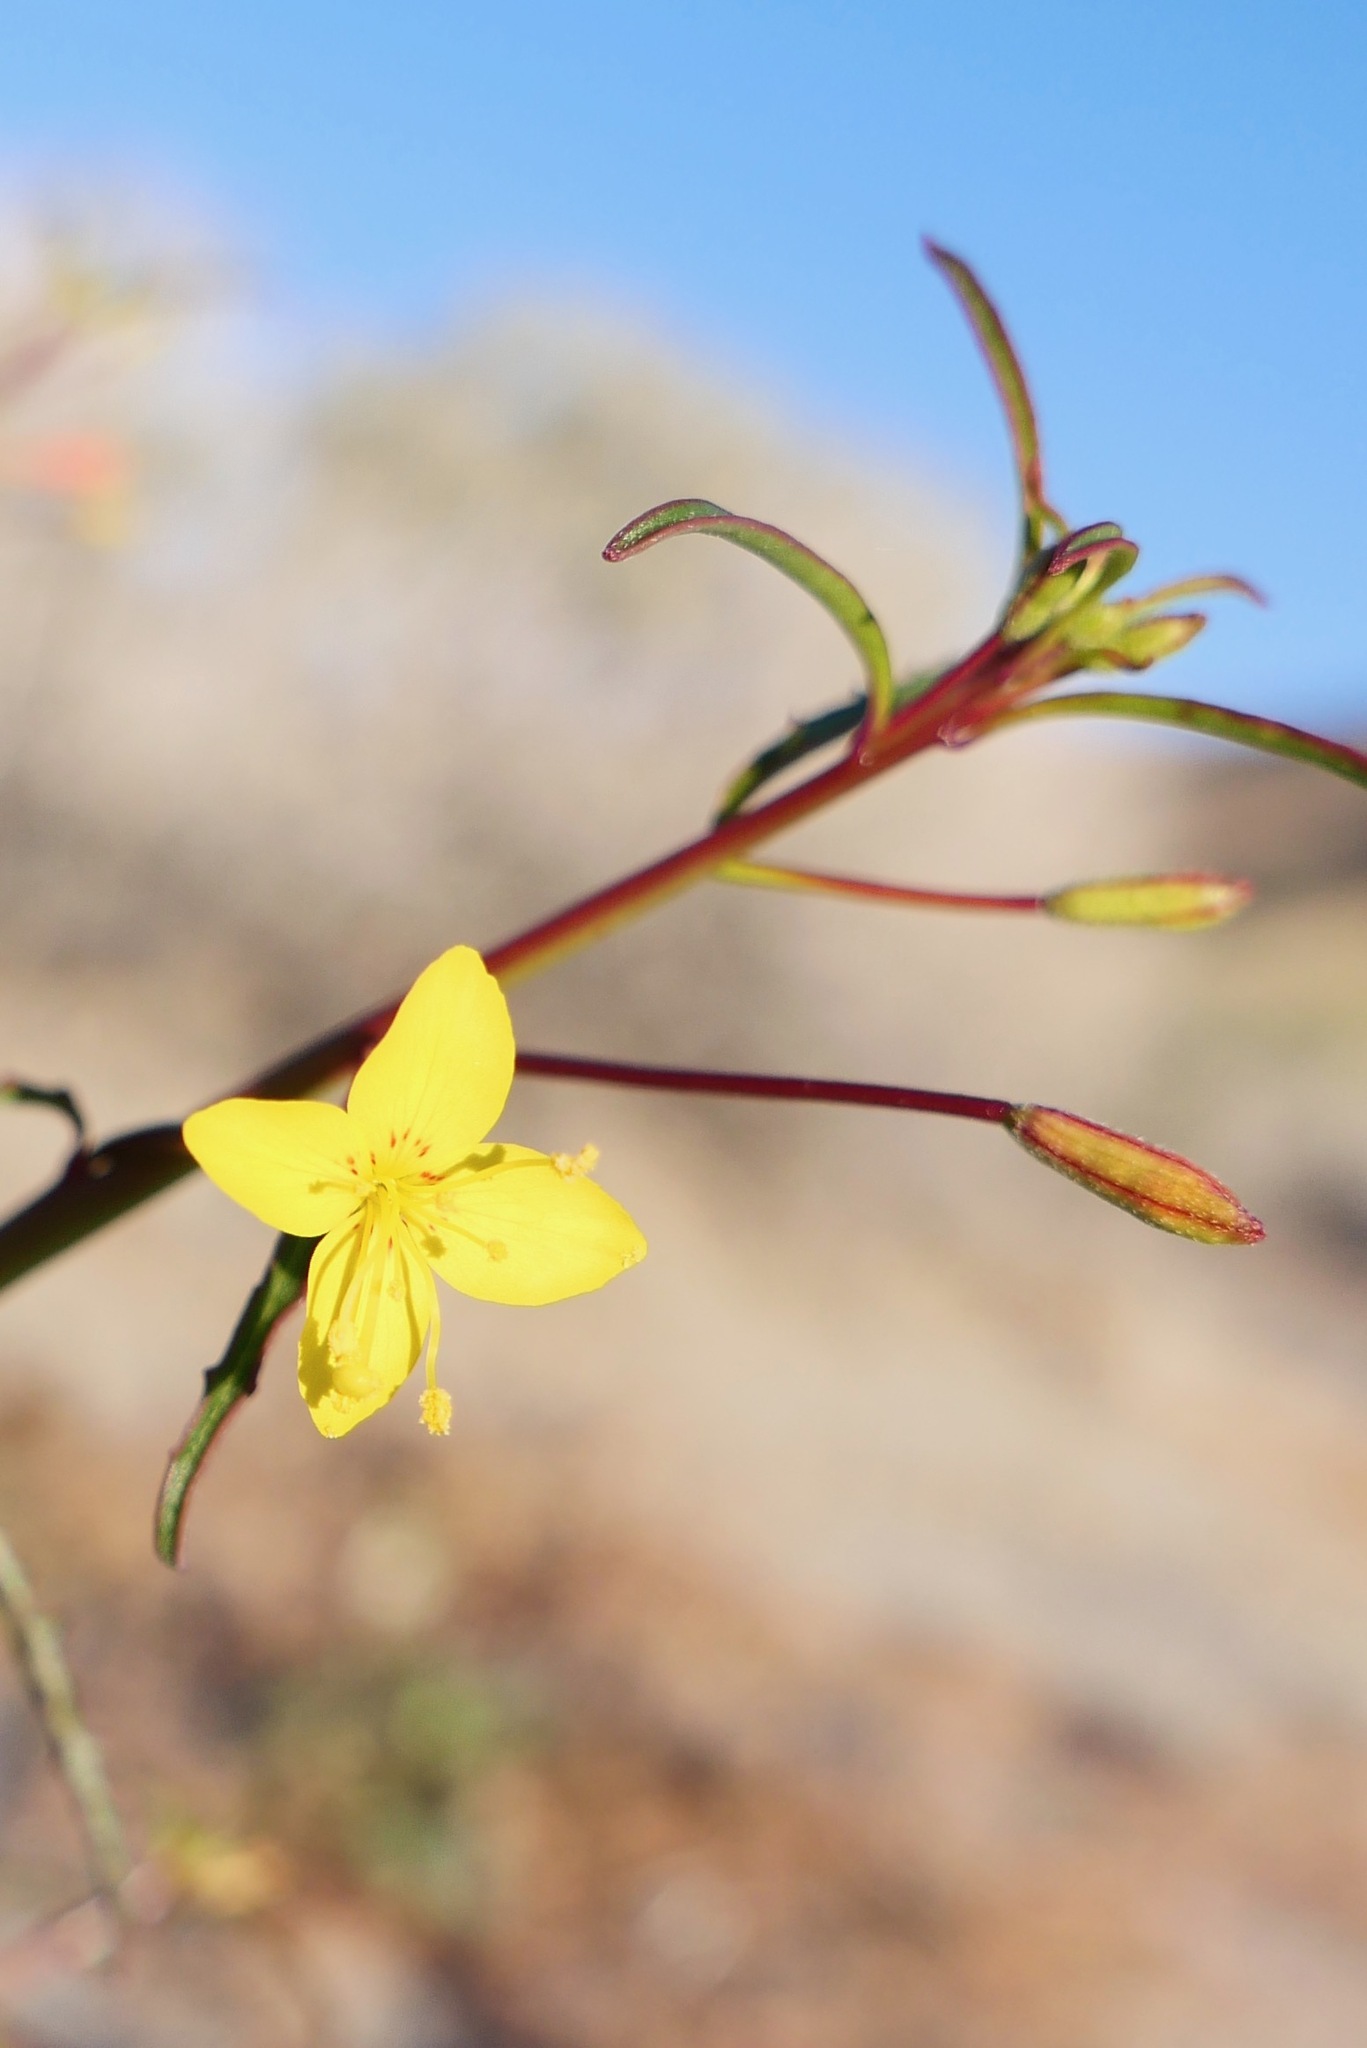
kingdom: Plantae
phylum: Tracheophyta
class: Magnoliopsida
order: Myrtales
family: Onagraceae
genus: Eulobus
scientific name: Eulobus californicus
